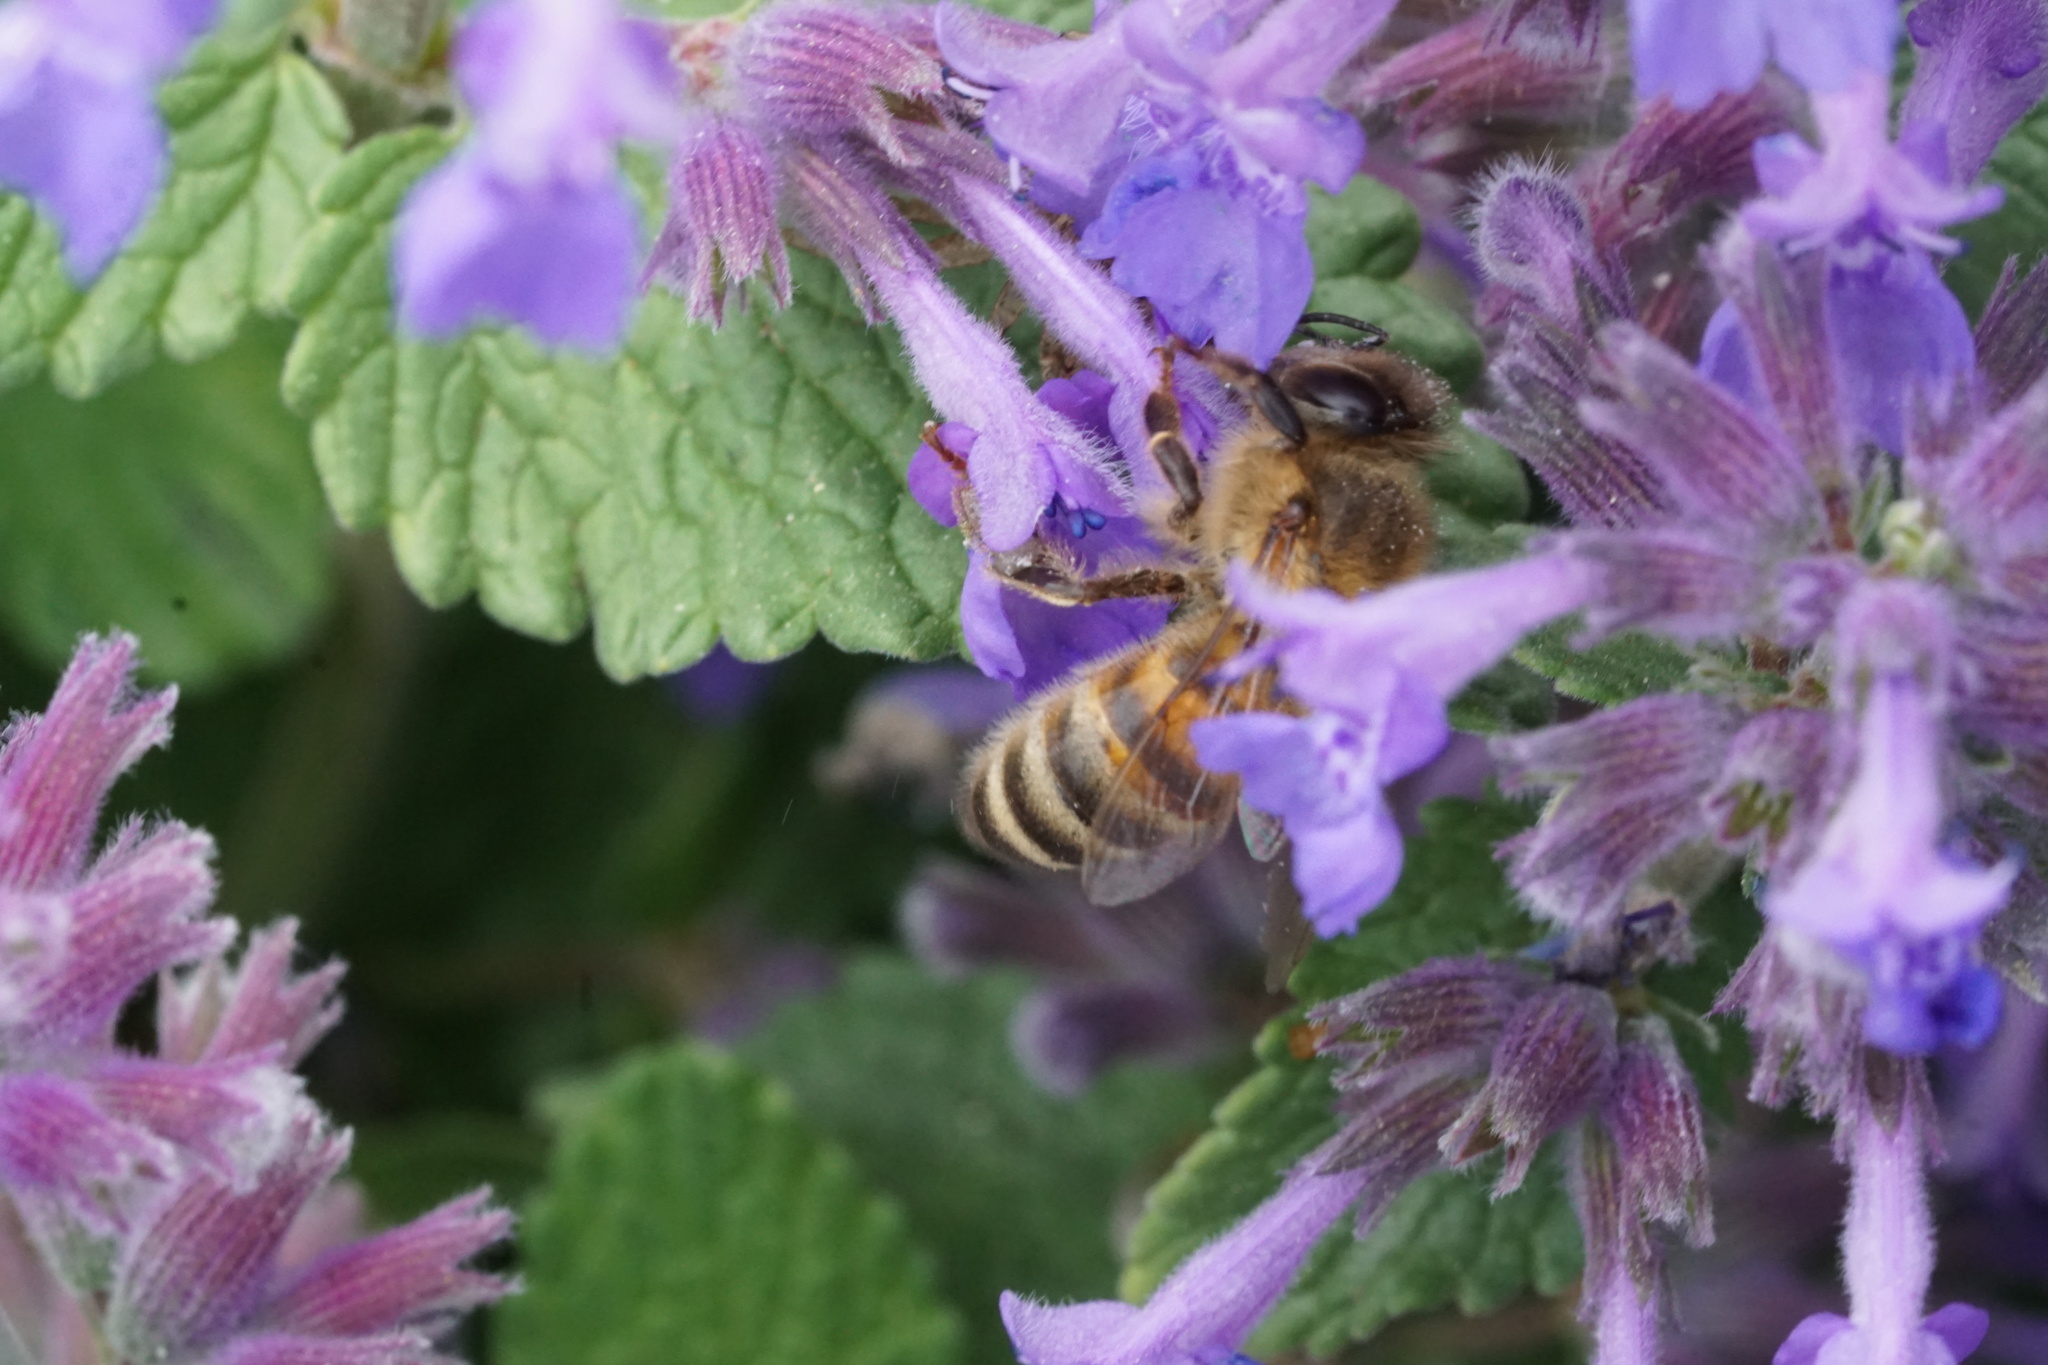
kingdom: Animalia
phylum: Arthropoda
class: Insecta
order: Hymenoptera
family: Apidae
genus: Apis
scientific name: Apis mellifera
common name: Honey bee
